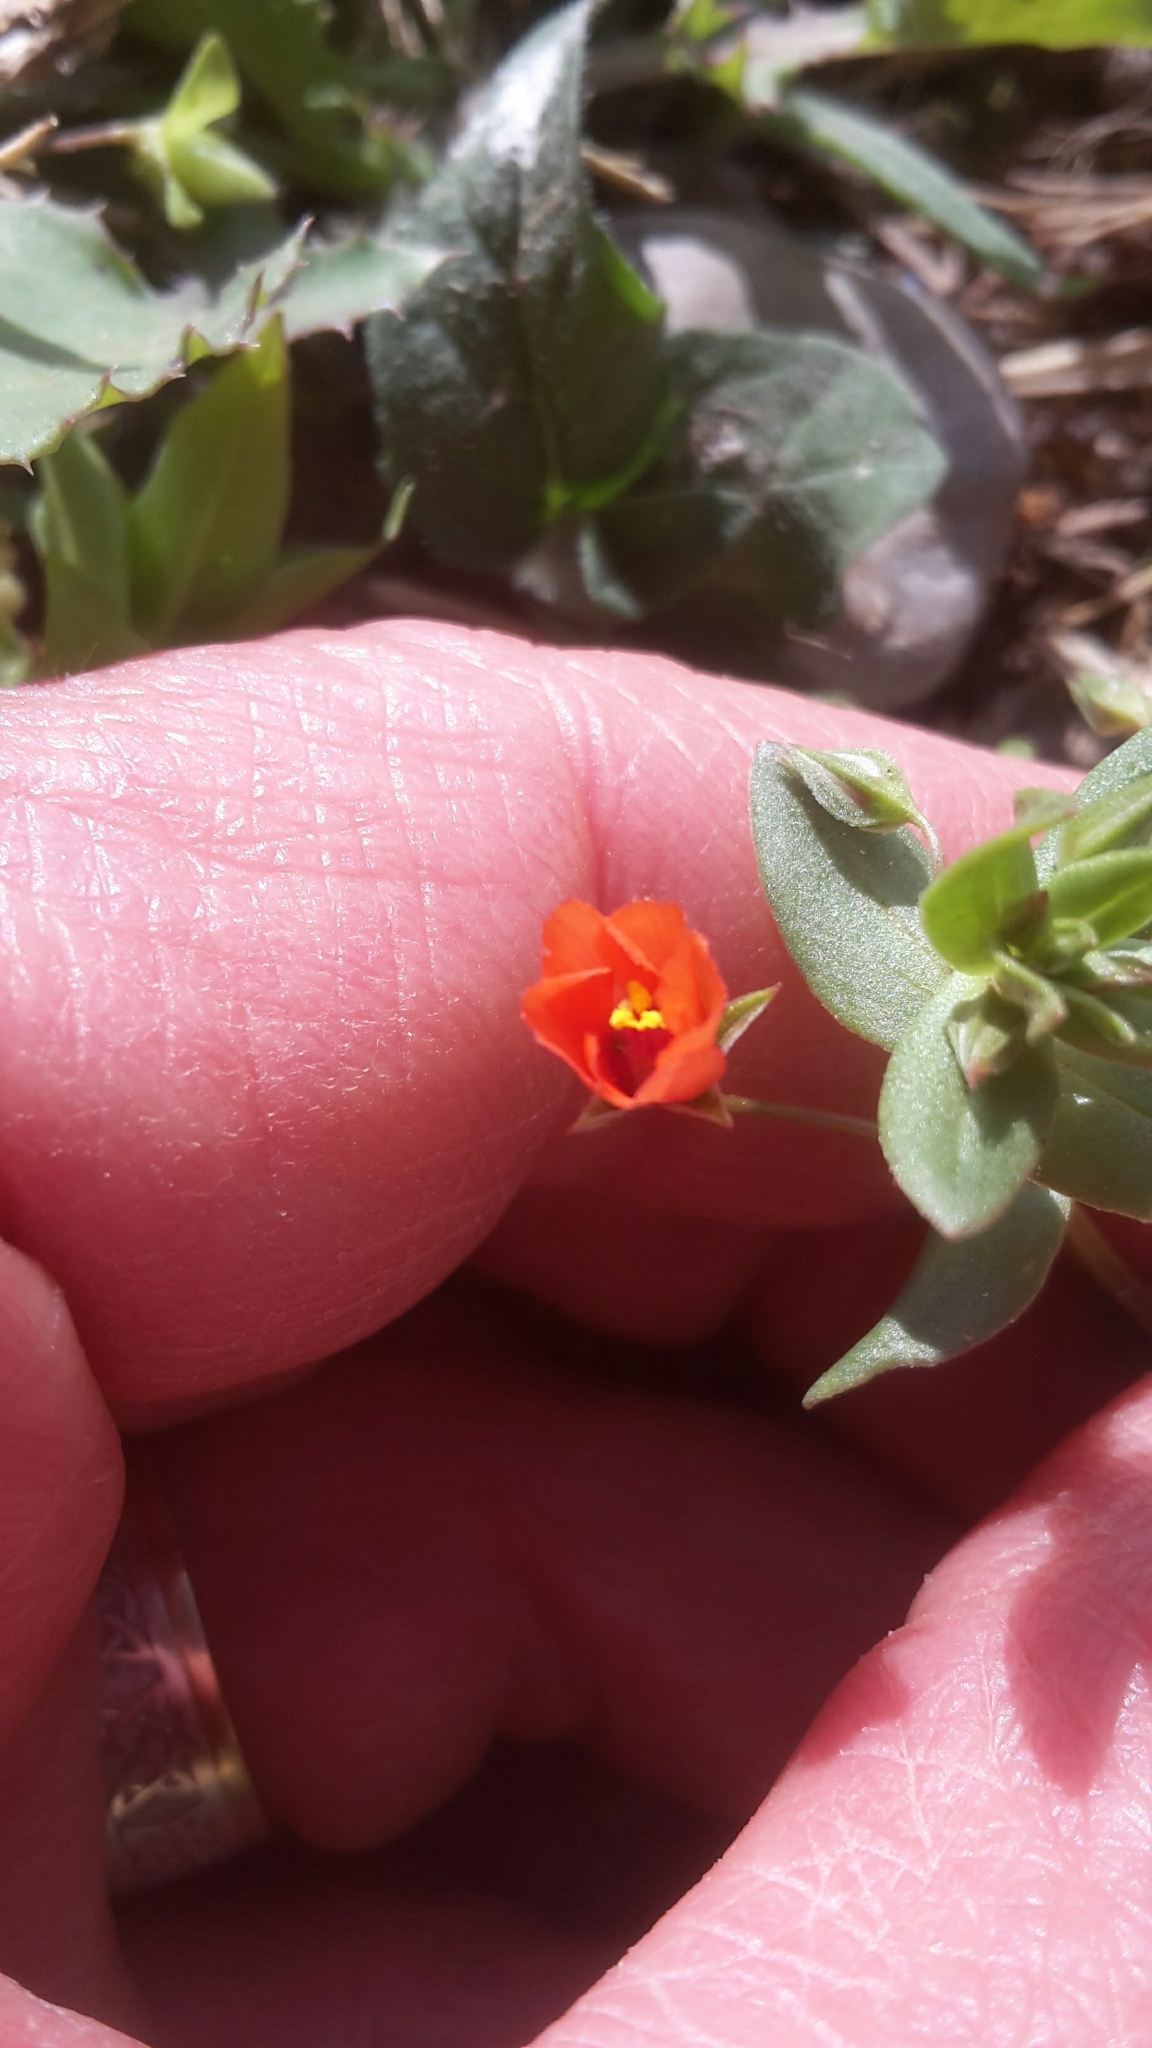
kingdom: Plantae
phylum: Tracheophyta
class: Magnoliopsida
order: Ericales
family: Primulaceae
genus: Lysimachia
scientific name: Lysimachia arvensis
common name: Scarlet pimpernel
